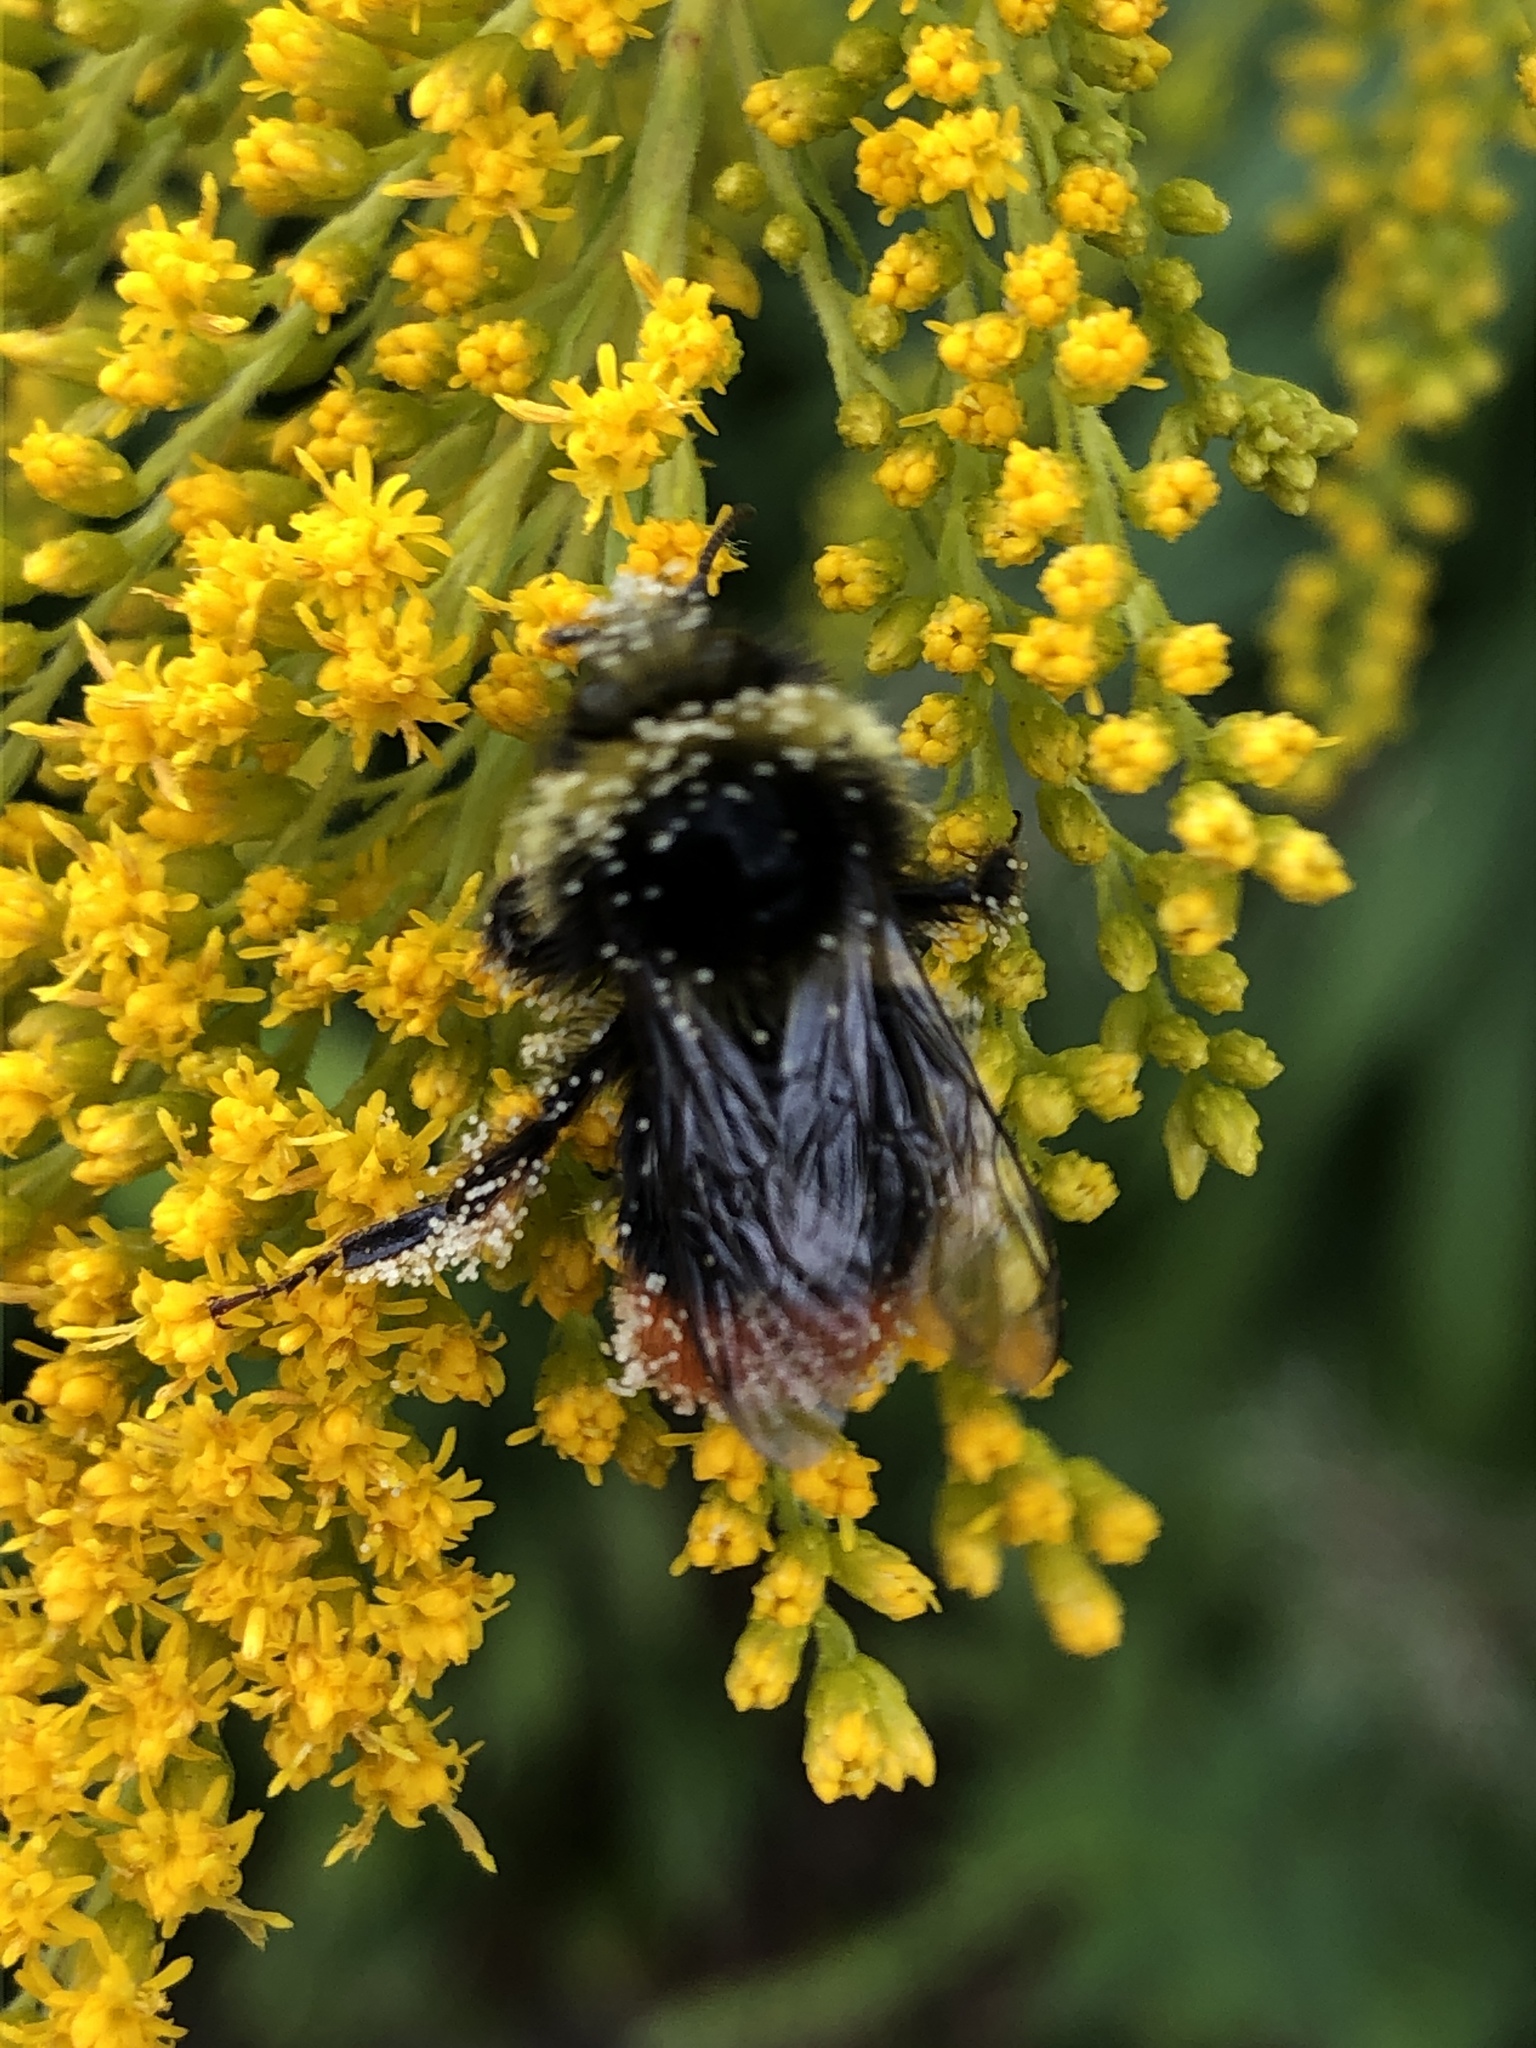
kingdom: Animalia
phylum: Arthropoda
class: Insecta
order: Hymenoptera
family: Apidae
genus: Bombus
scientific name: Bombus lapidarius
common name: Large red-tailed humble-bee
